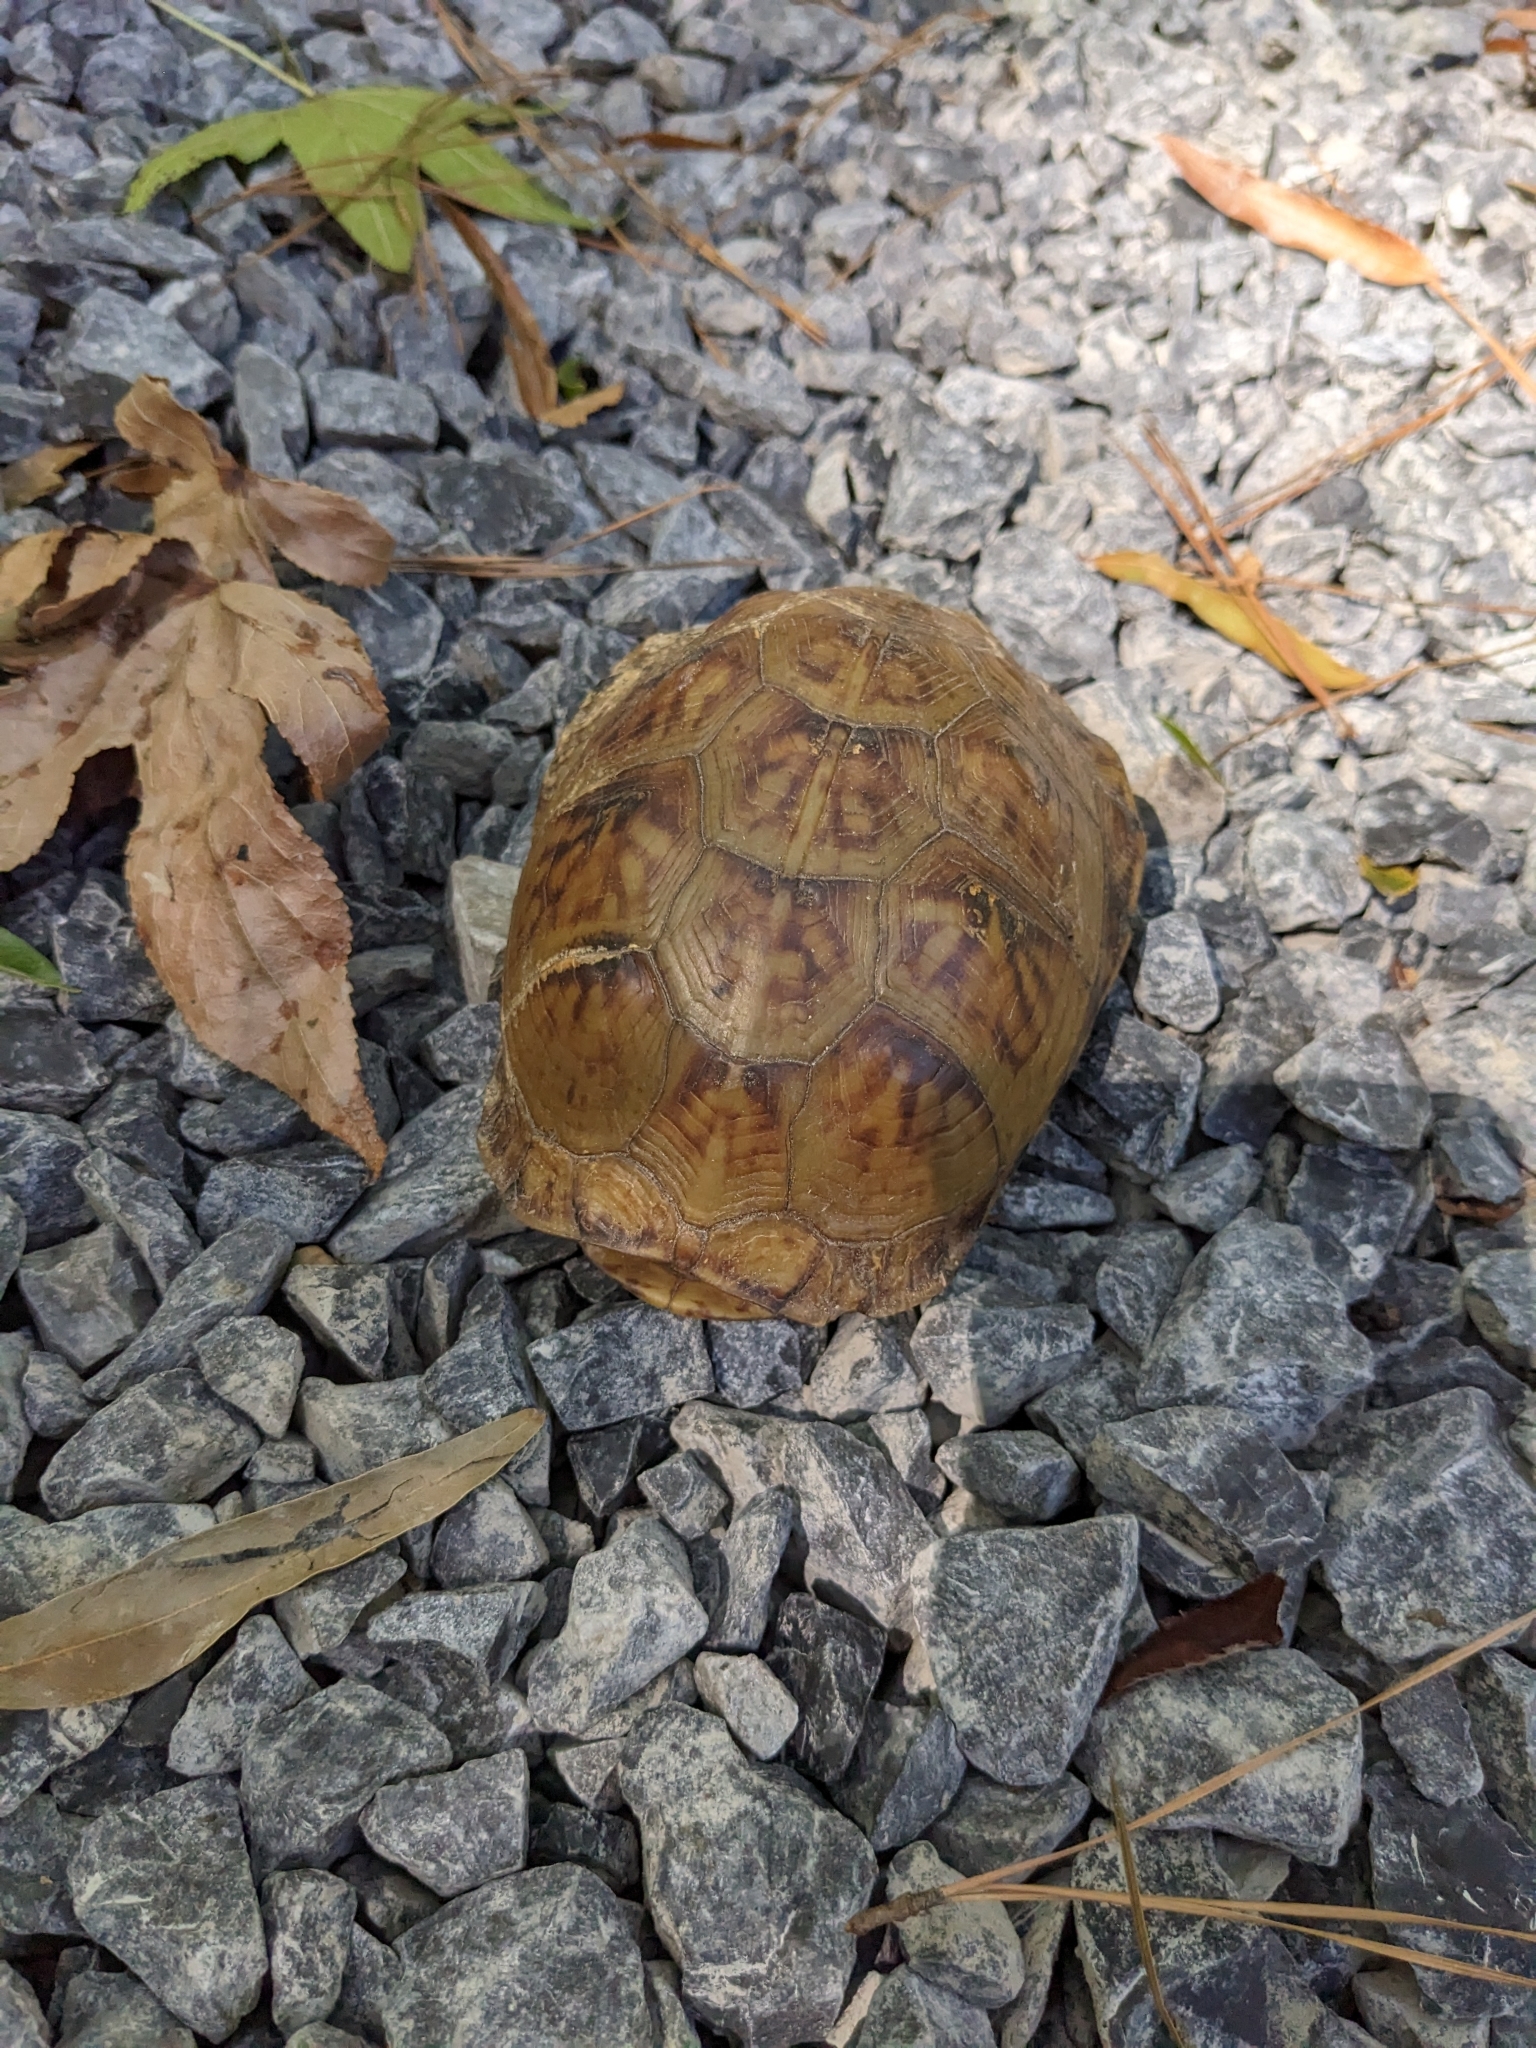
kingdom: Animalia
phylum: Chordata
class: Testudines
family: Emydidae
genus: Terrapene
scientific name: Terrapene carolina
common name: Common box turtle
